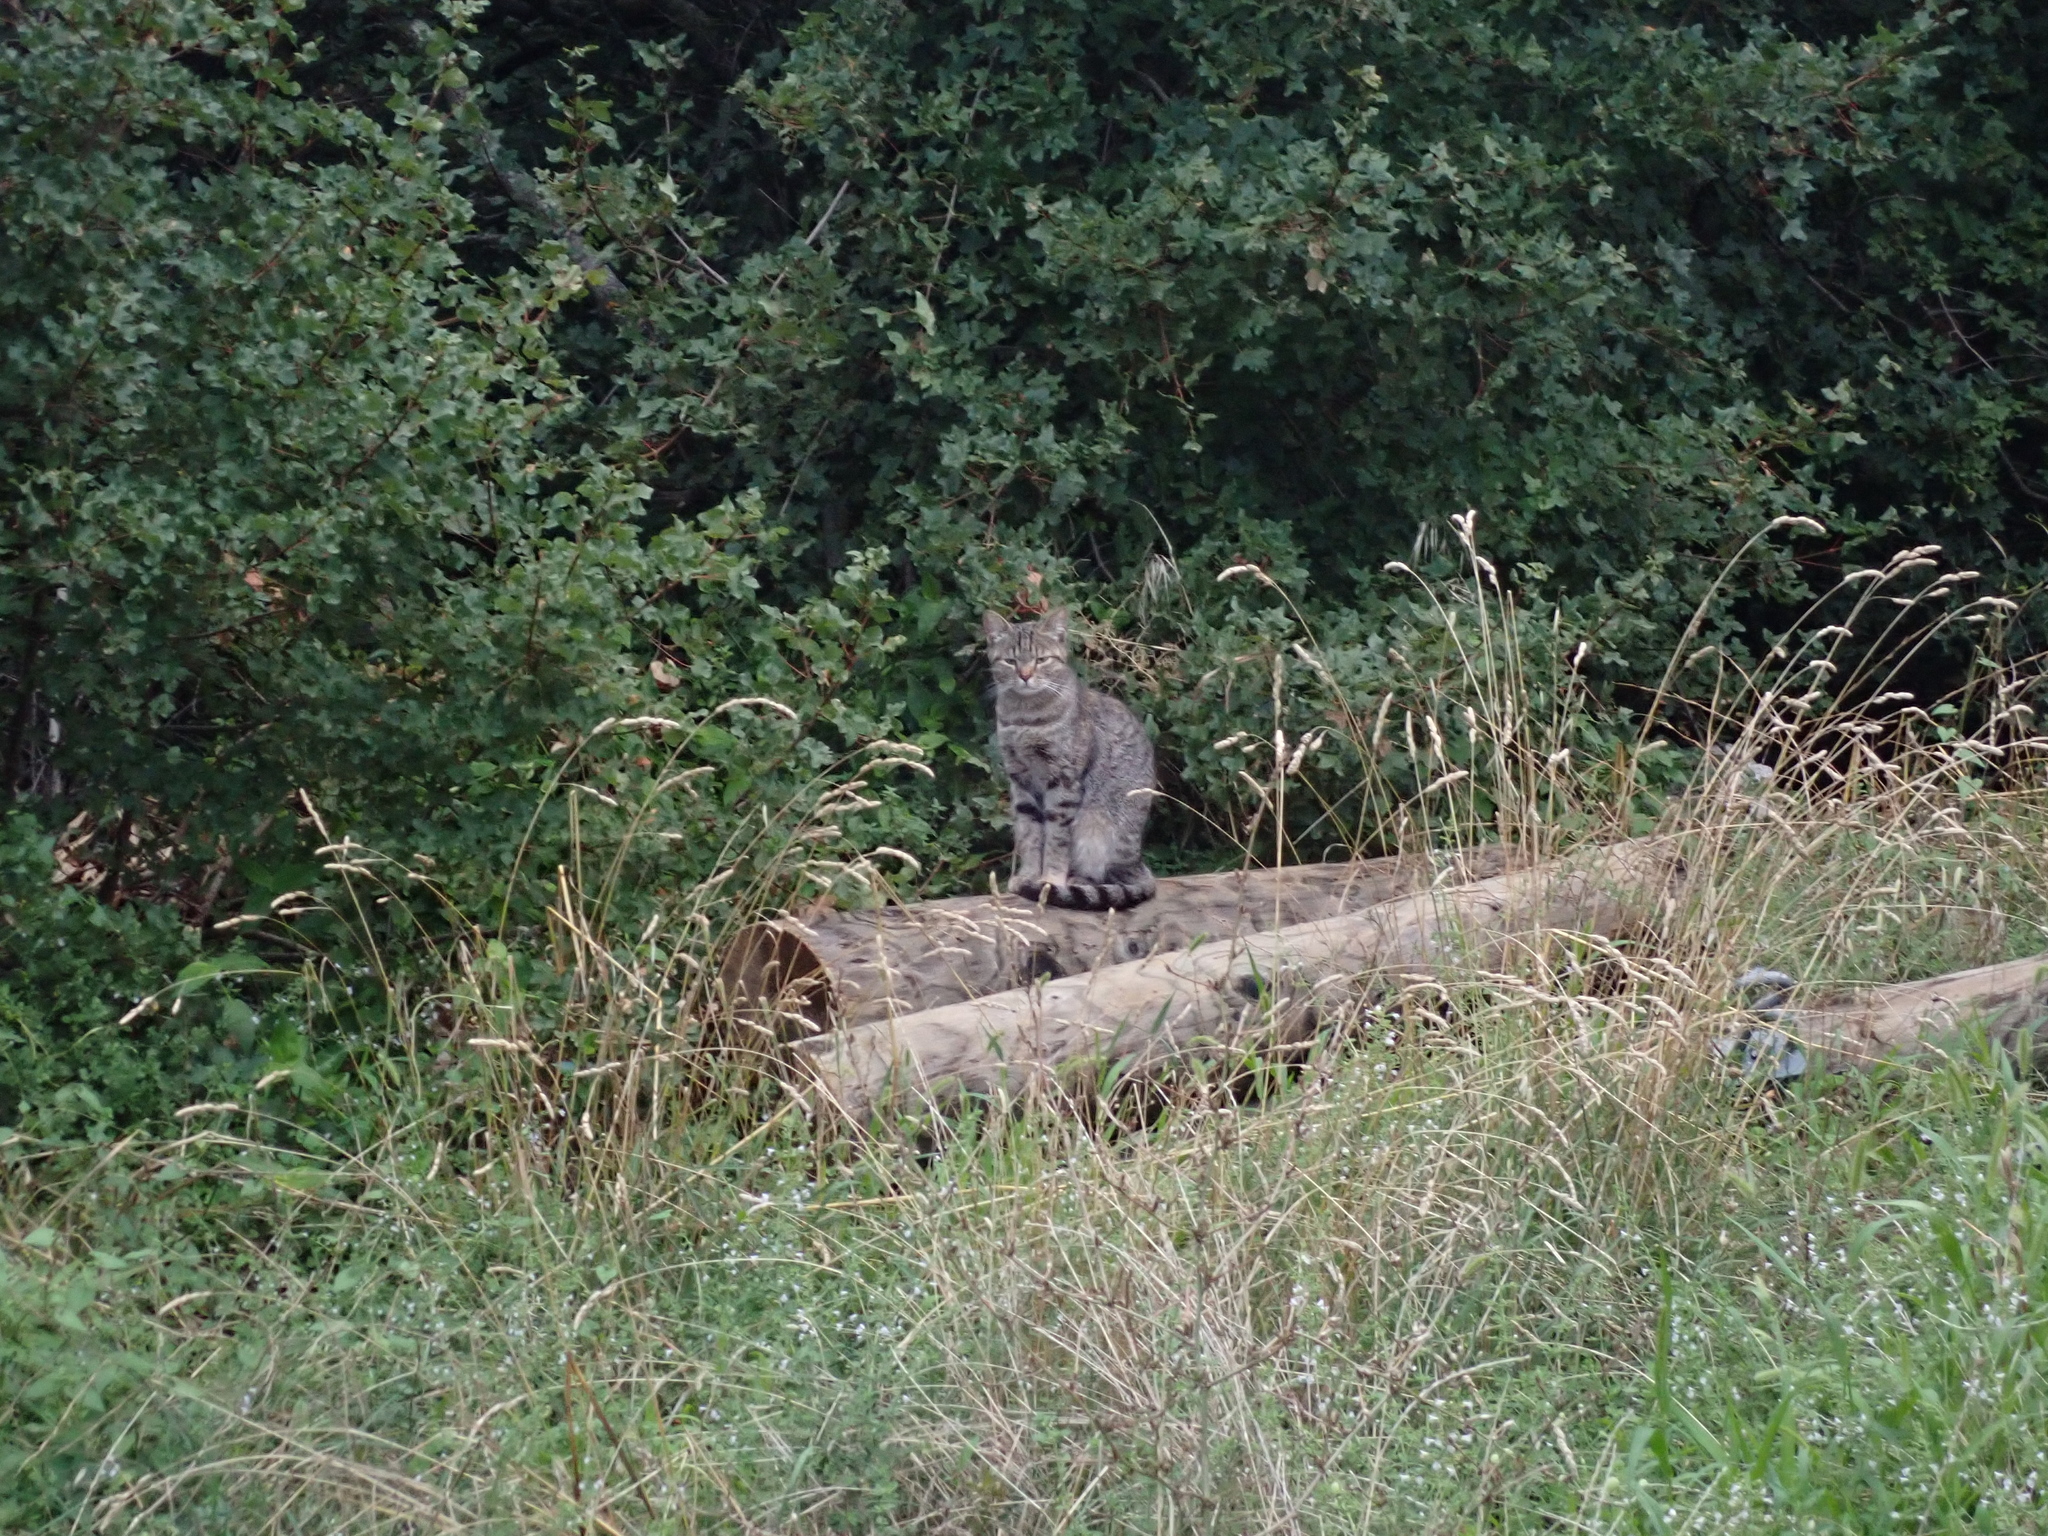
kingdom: Animalia
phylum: Chordata
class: Mammalia
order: Carnivora
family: Felidae
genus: Felis
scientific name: Felis catus
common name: Domestic cat
